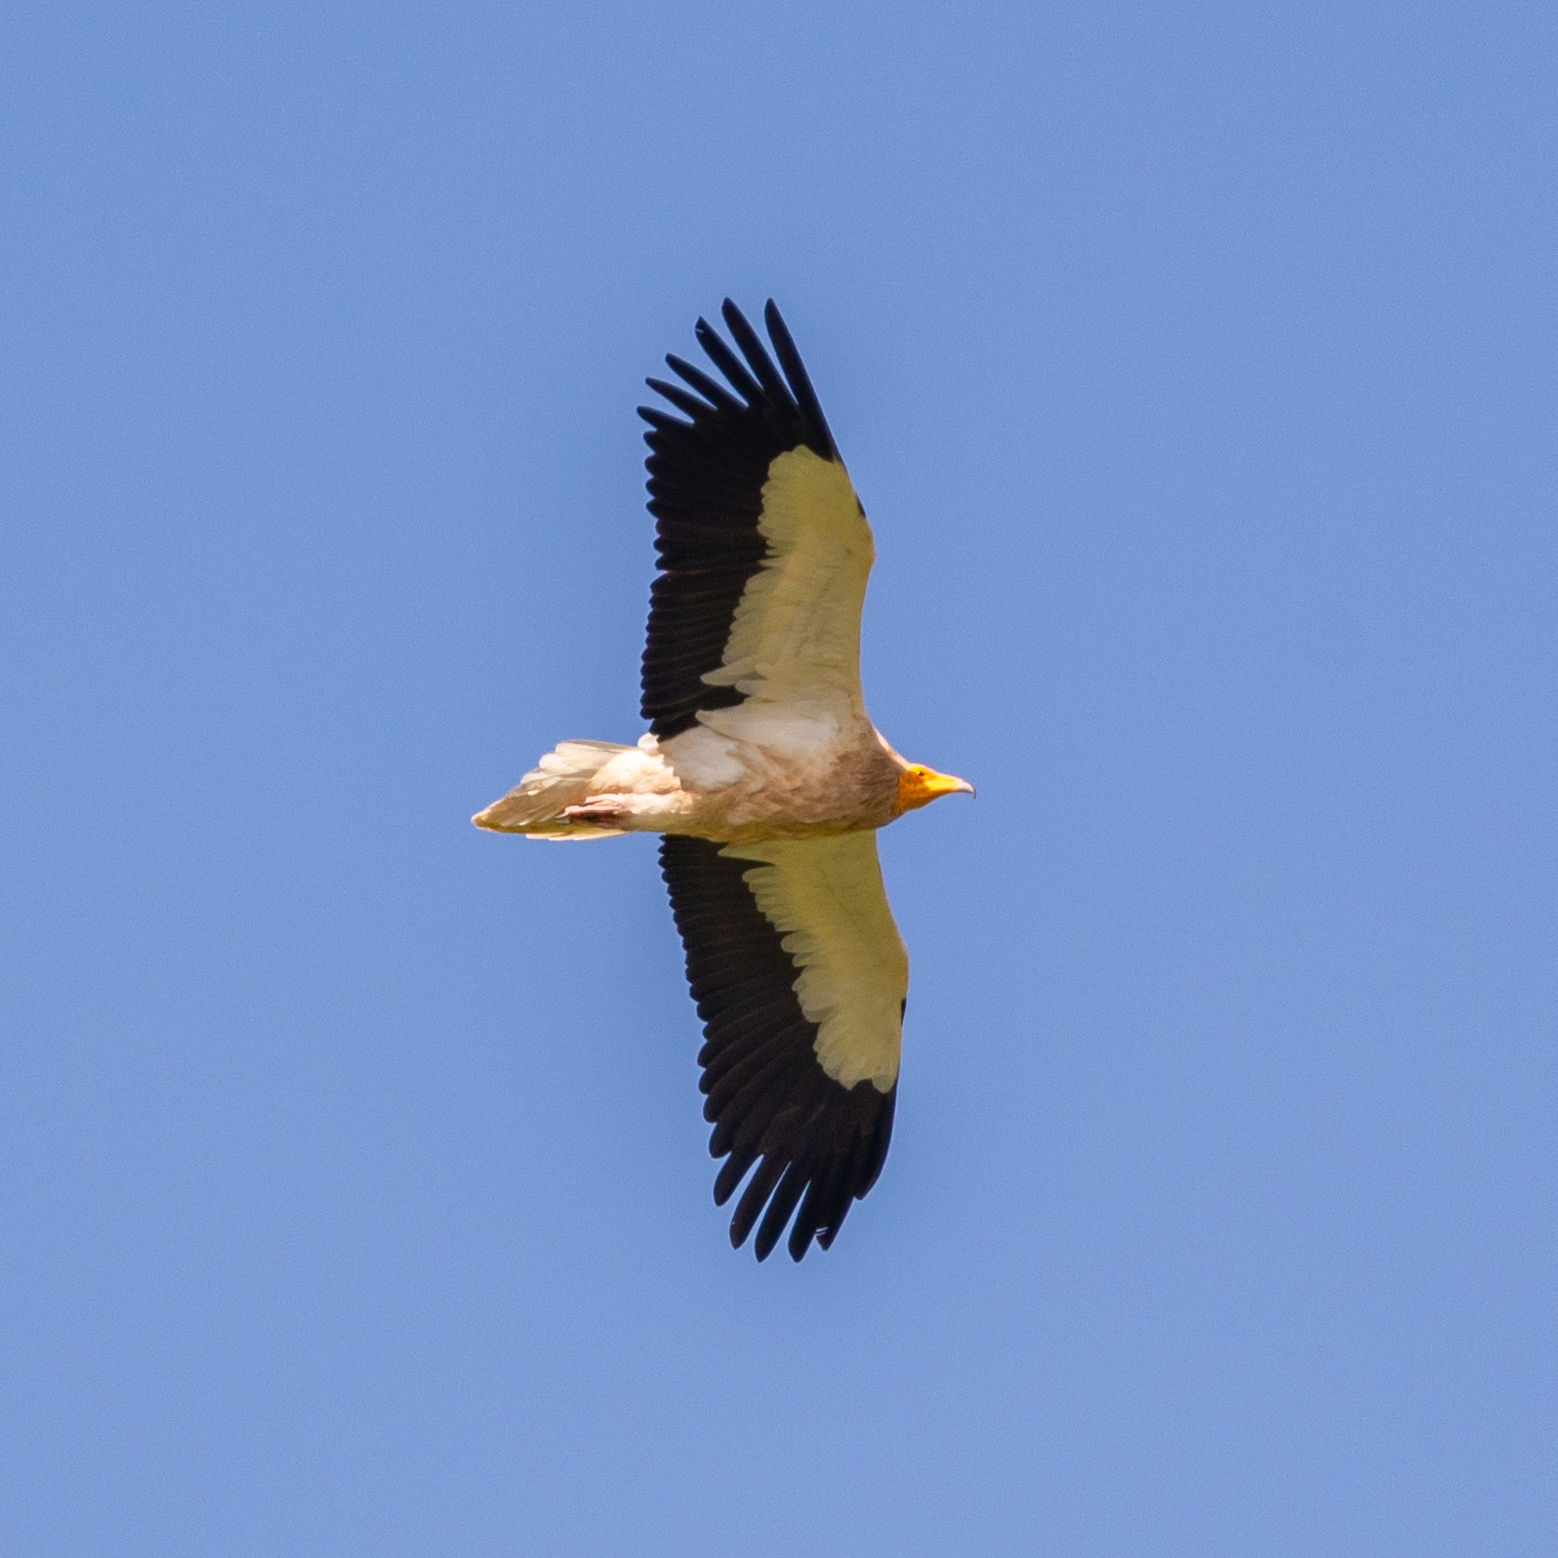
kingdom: Animalia
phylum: Chordata
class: Aves
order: Accipitriformes
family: Accipitridae
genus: Neophron
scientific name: Neophron percnopterus
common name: Egyptian vulture
